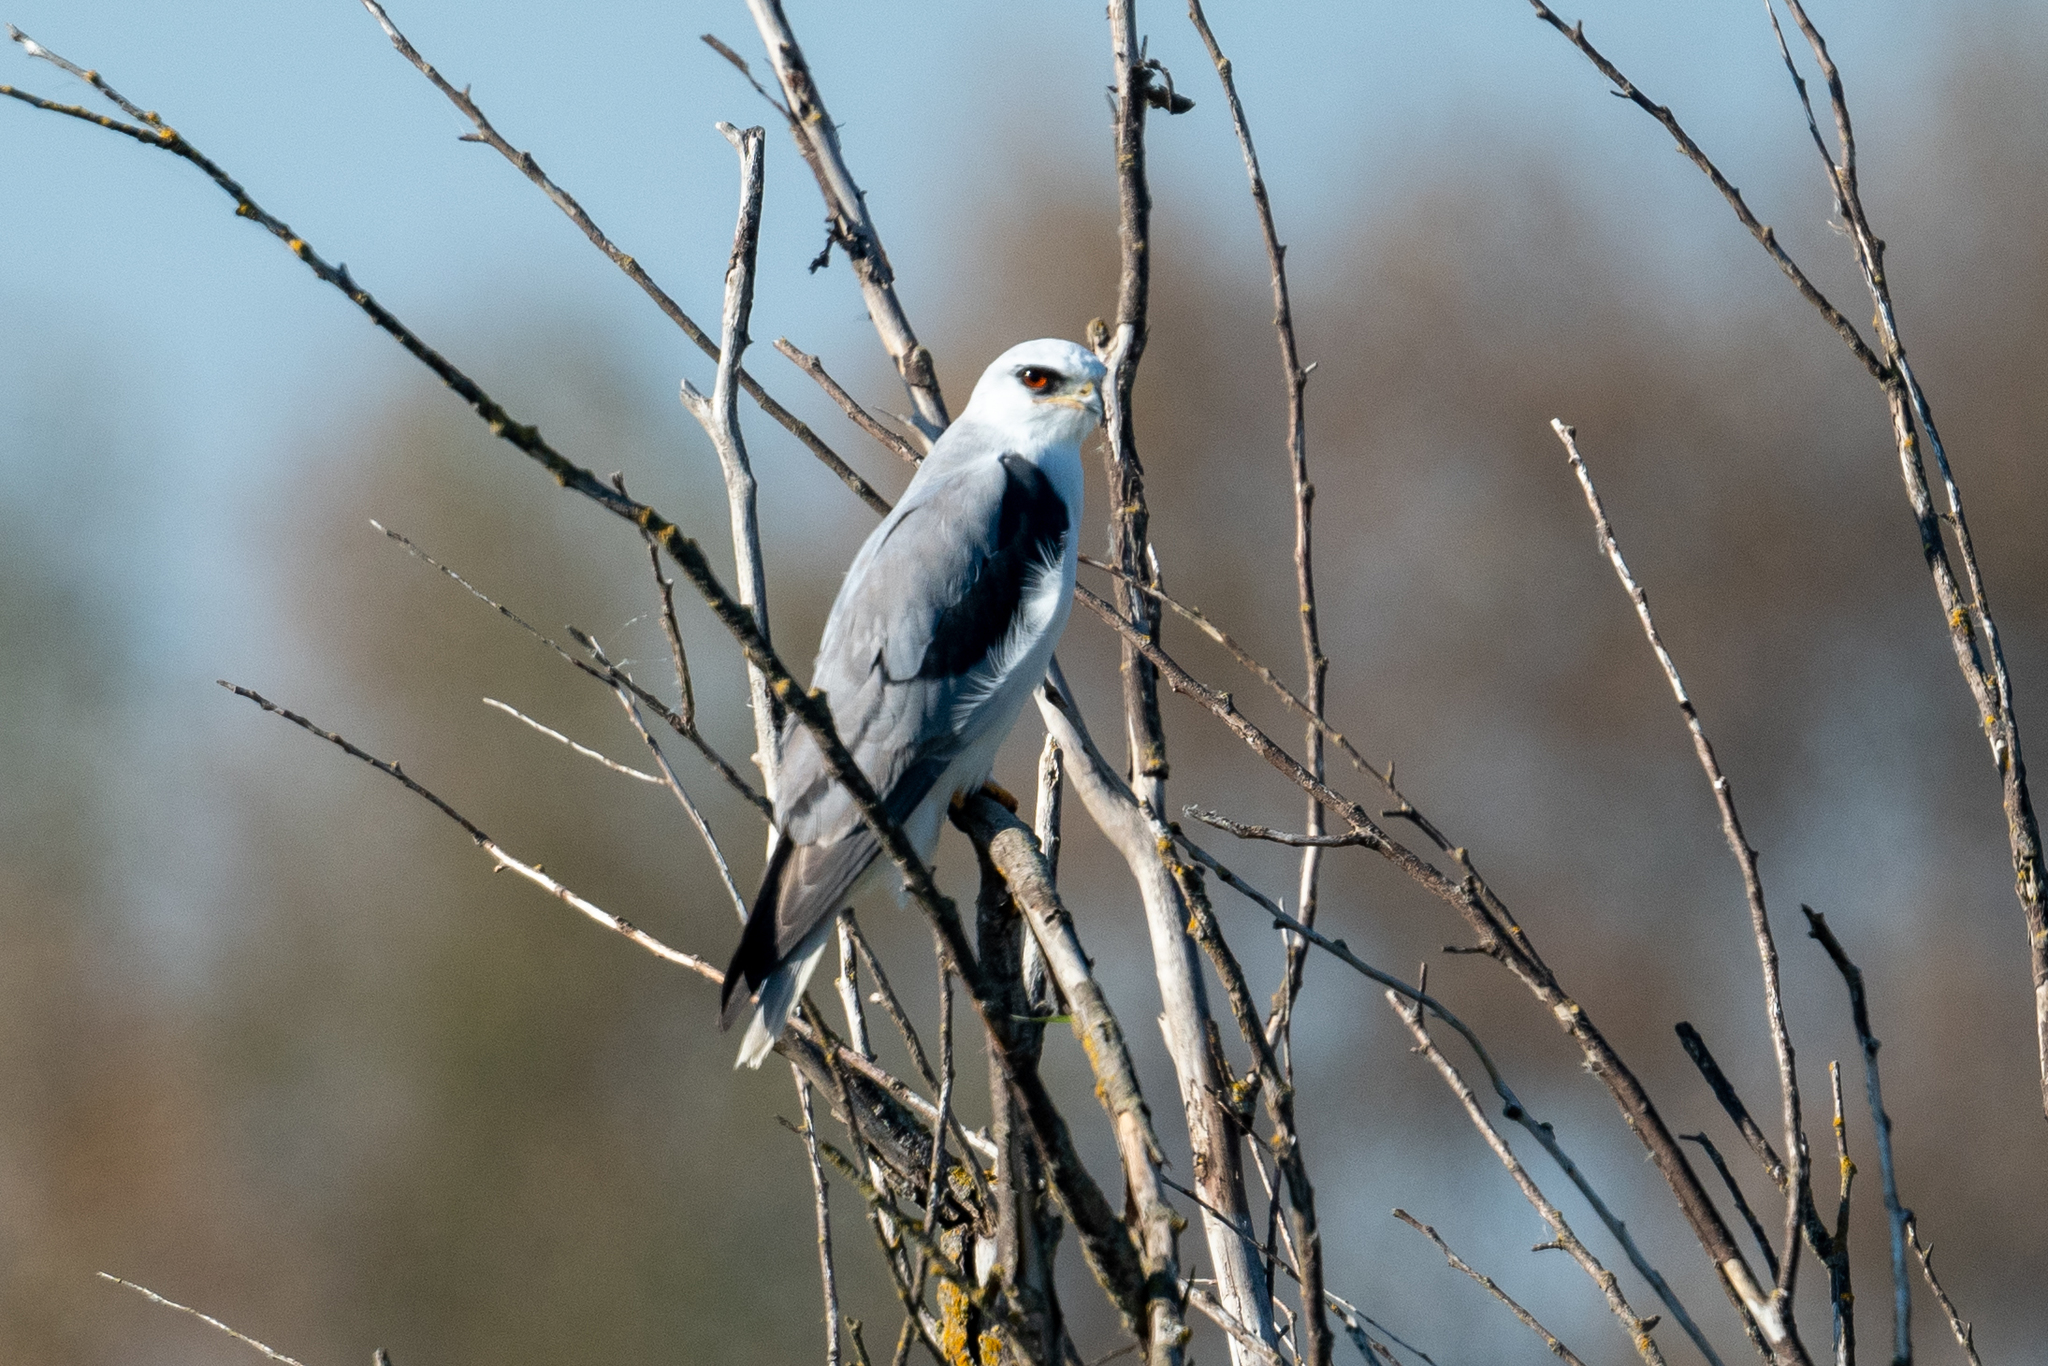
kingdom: Animalia
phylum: Chordata
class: Aves
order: Accipitriformes
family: Accipitridae
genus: Elanus
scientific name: Elanus leucurus
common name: White-tailed kite
